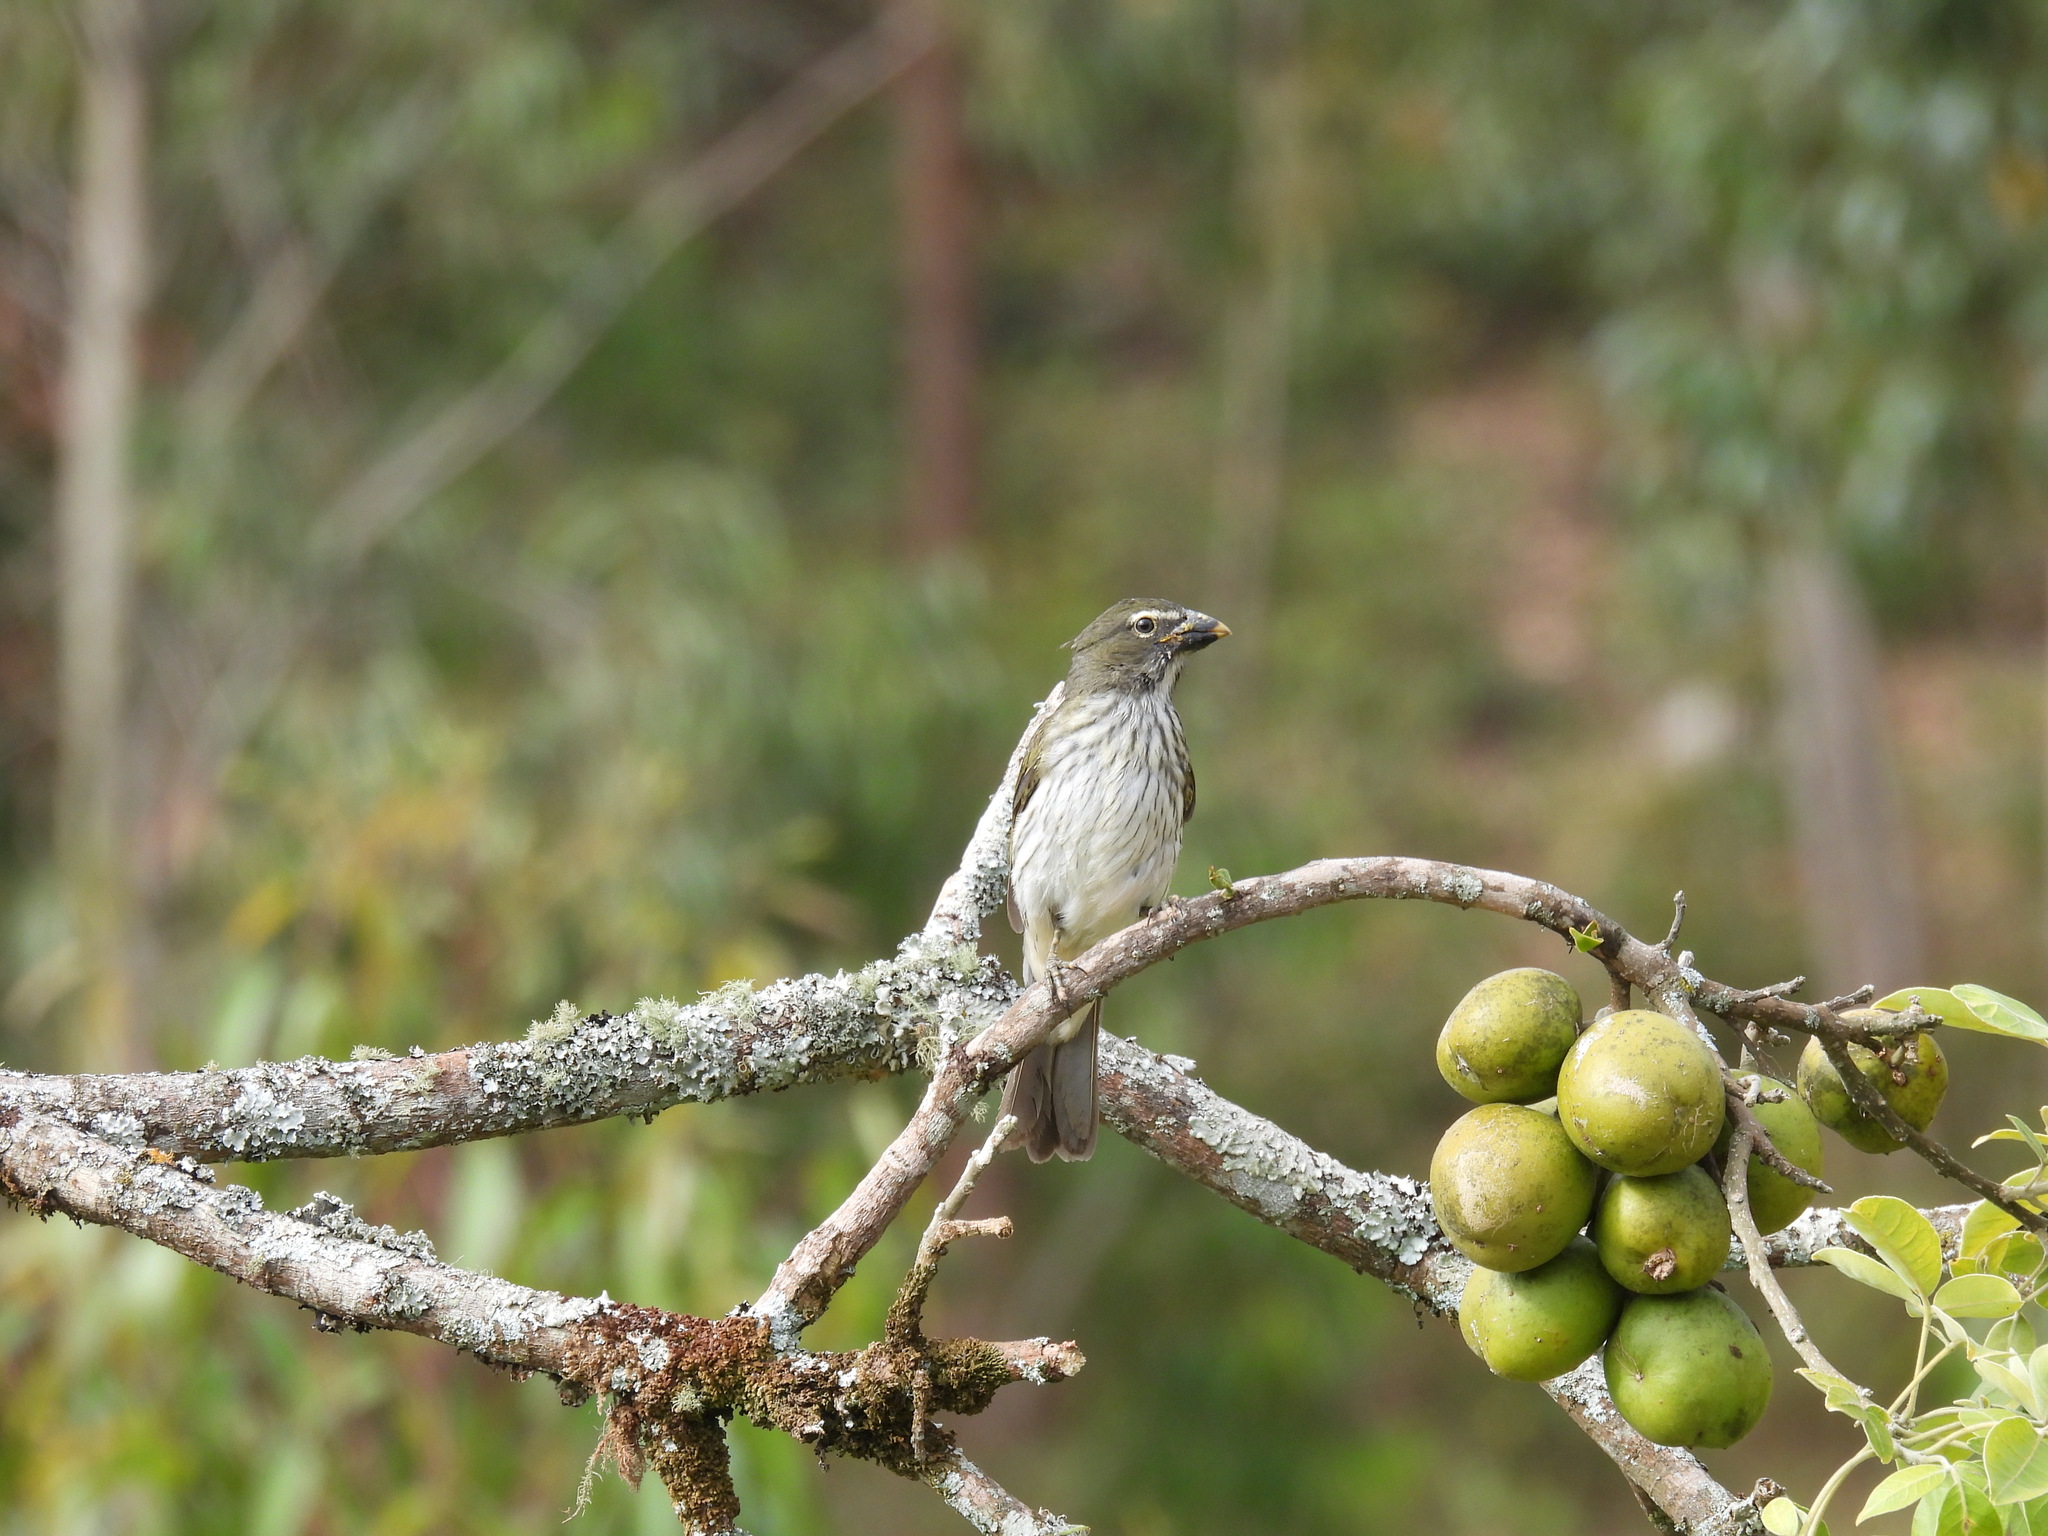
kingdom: Animalia
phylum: Chordata
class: Aves
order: Passeriformes
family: Thraupidae
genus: Saltator
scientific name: Saltator striatipectus
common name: Streaked saltator
